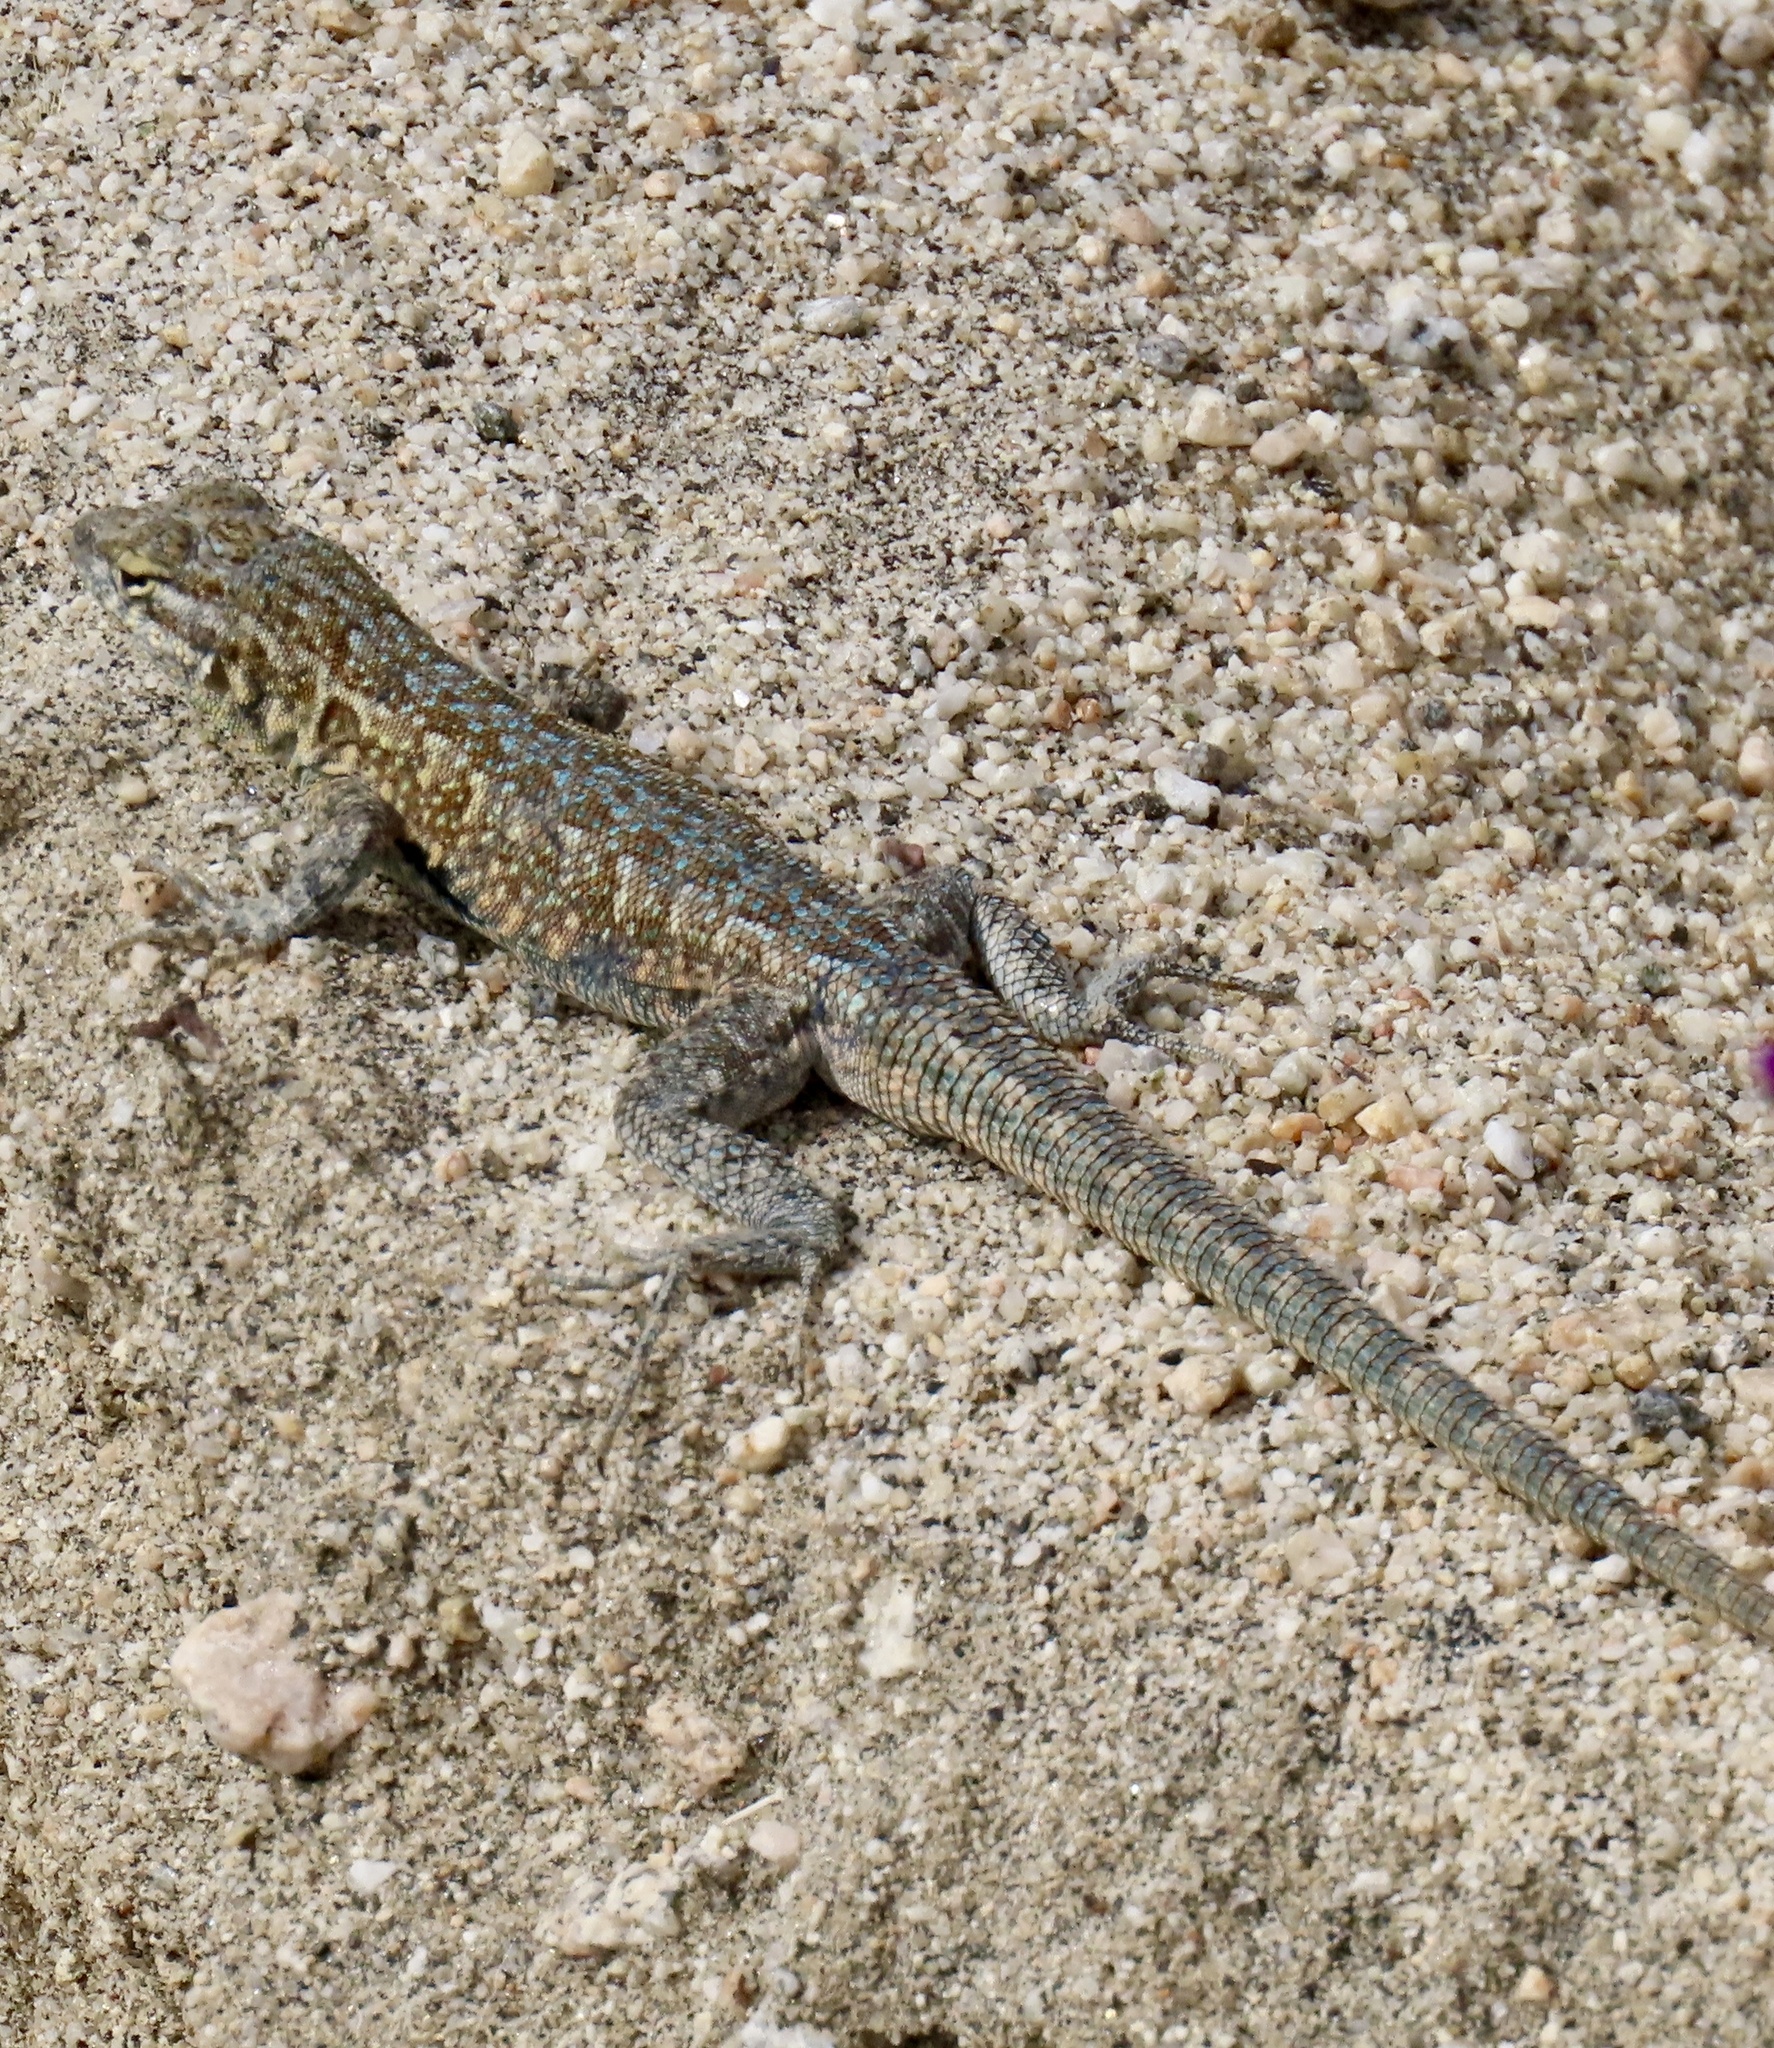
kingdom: Animalia
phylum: Chordata
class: Squamata
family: Phrynosomatidae
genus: Uta
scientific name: Uta stansburiana
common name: Side-blotched lizard
